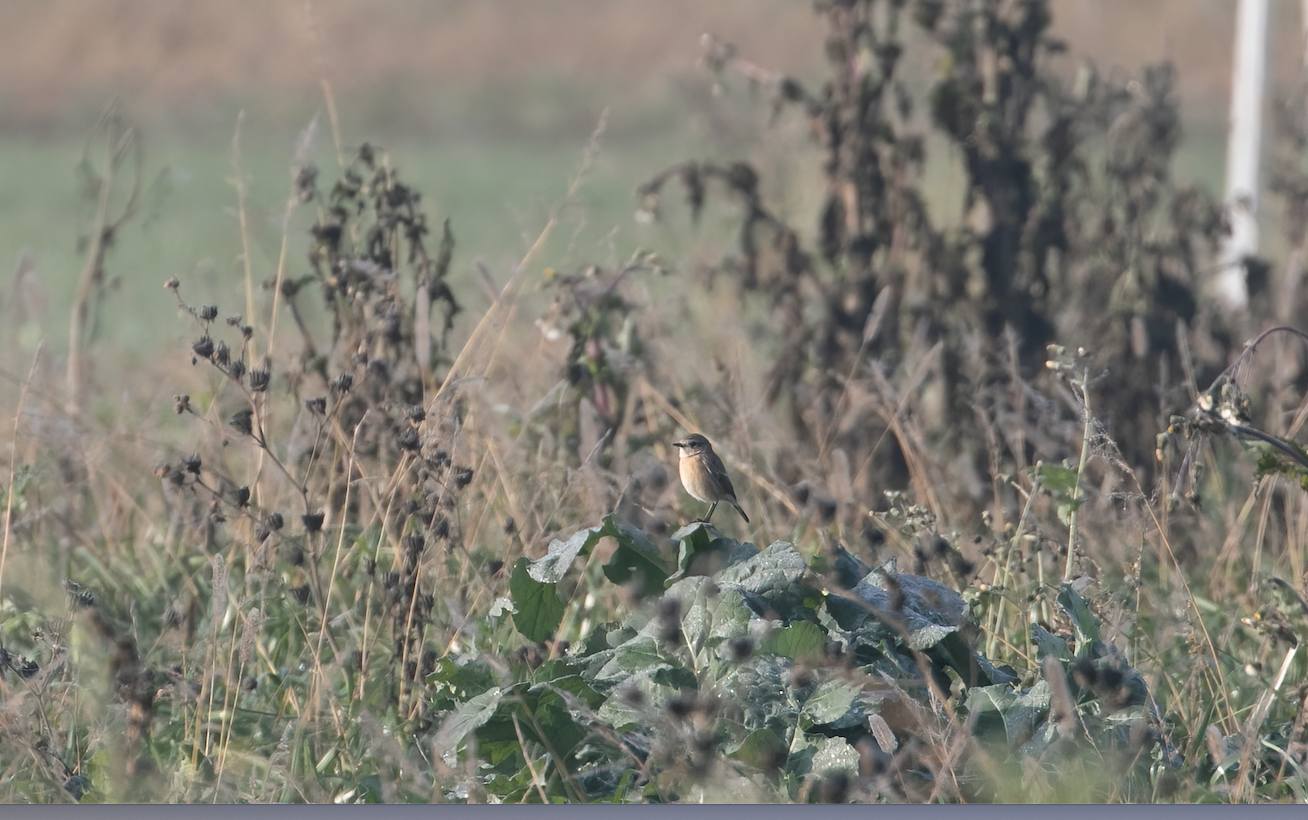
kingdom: Animalia
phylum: Chordata
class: Aves
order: Passeriformes
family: Muscicapidae
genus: Saxicola
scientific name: Saxicola rubicola
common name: European stonechat
